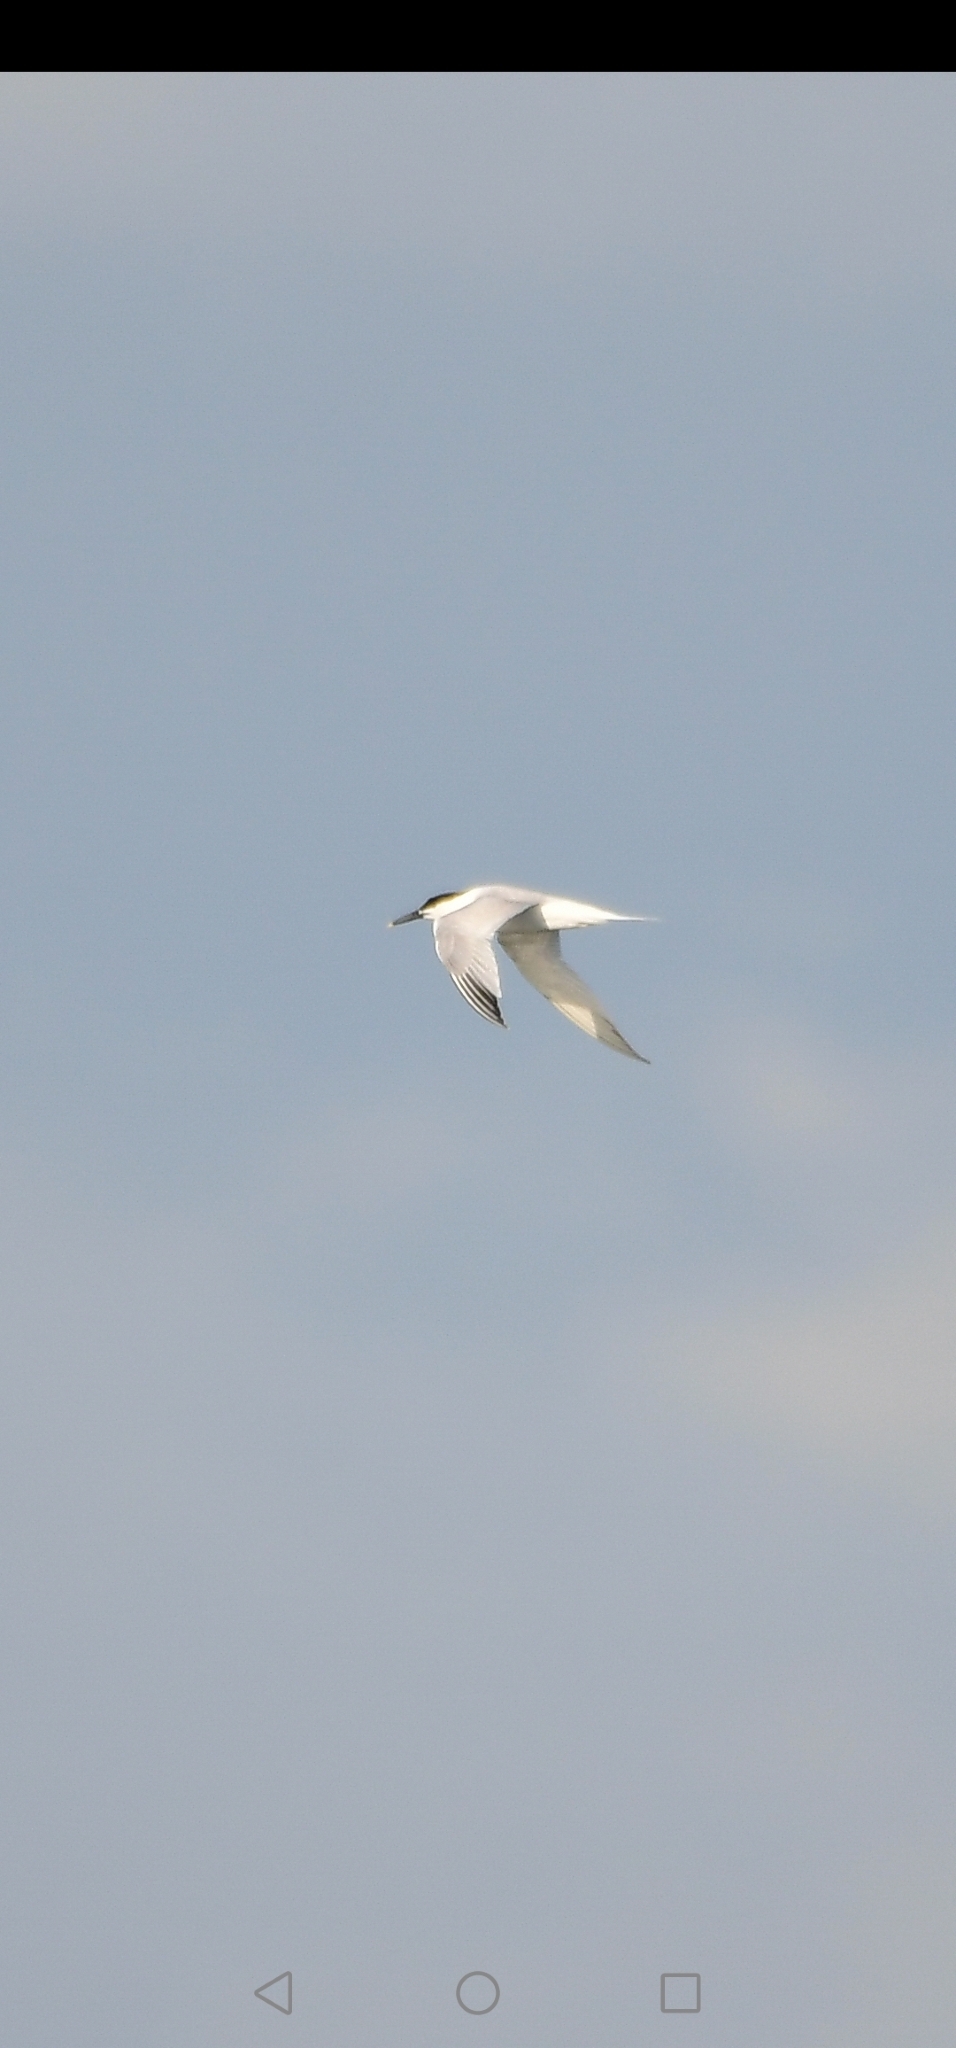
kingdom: Animalia
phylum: Chordata
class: Aves
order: Charadriiformes
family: Laridae
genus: Thalasseus
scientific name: Thalasseus sandvicensis
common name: Sandwich tern
